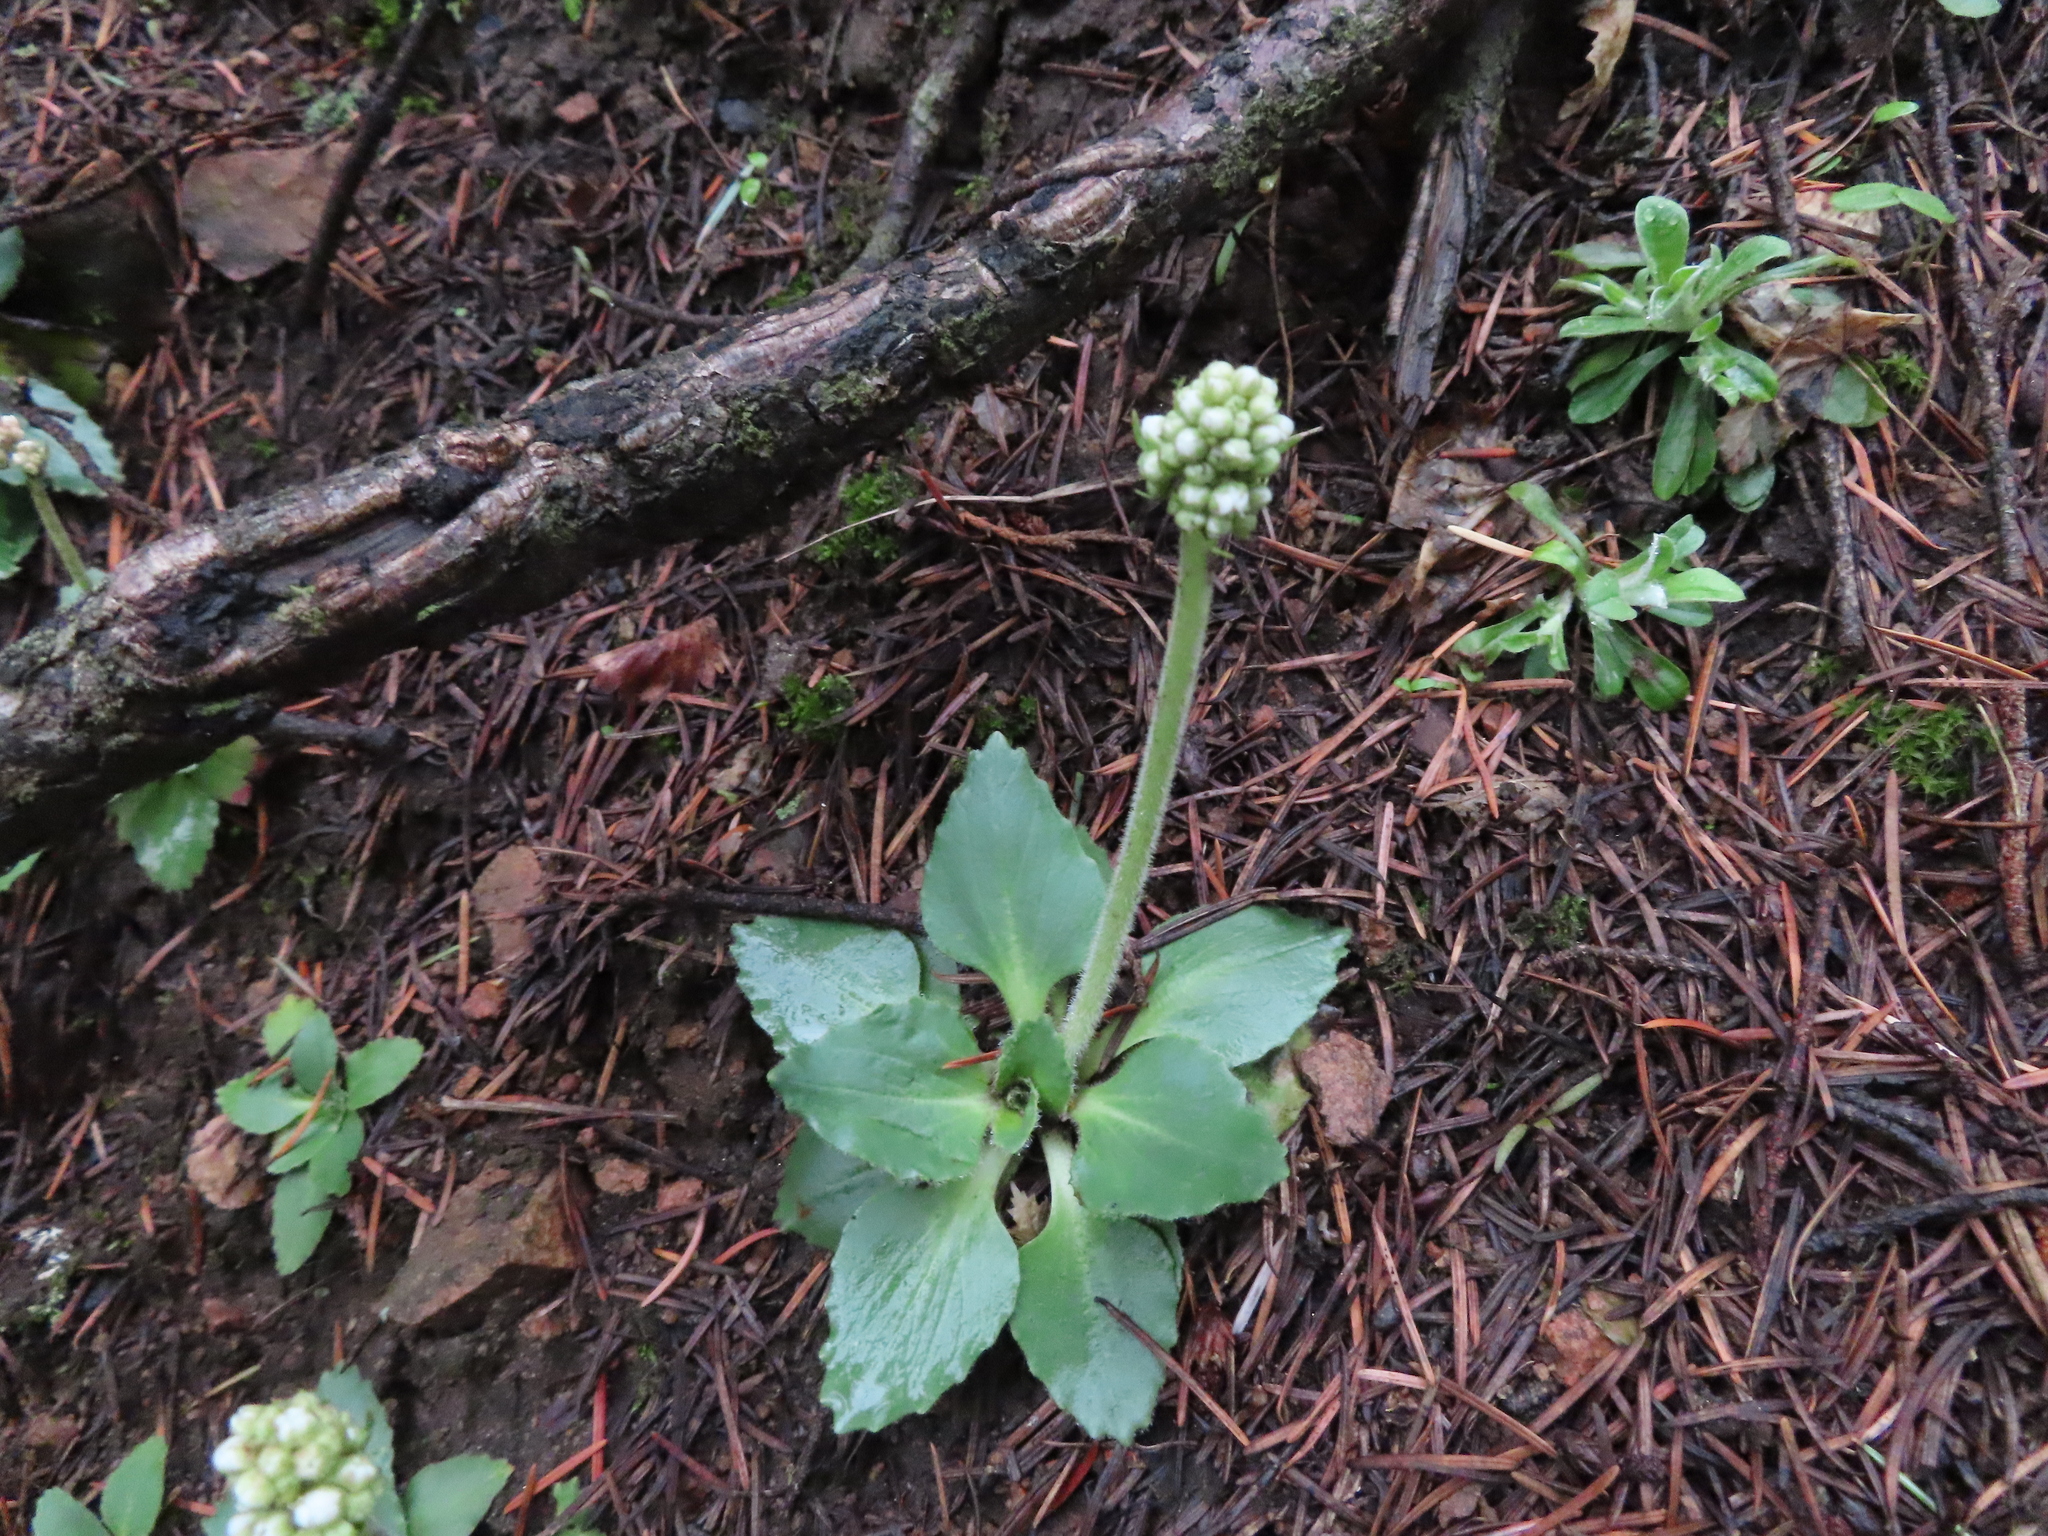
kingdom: Plantae
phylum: Tracheophyta
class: Magnoliopsida
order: Saxifragales
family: Saxifragaceae
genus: Micranthes
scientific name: Micranthes rhomboidea
